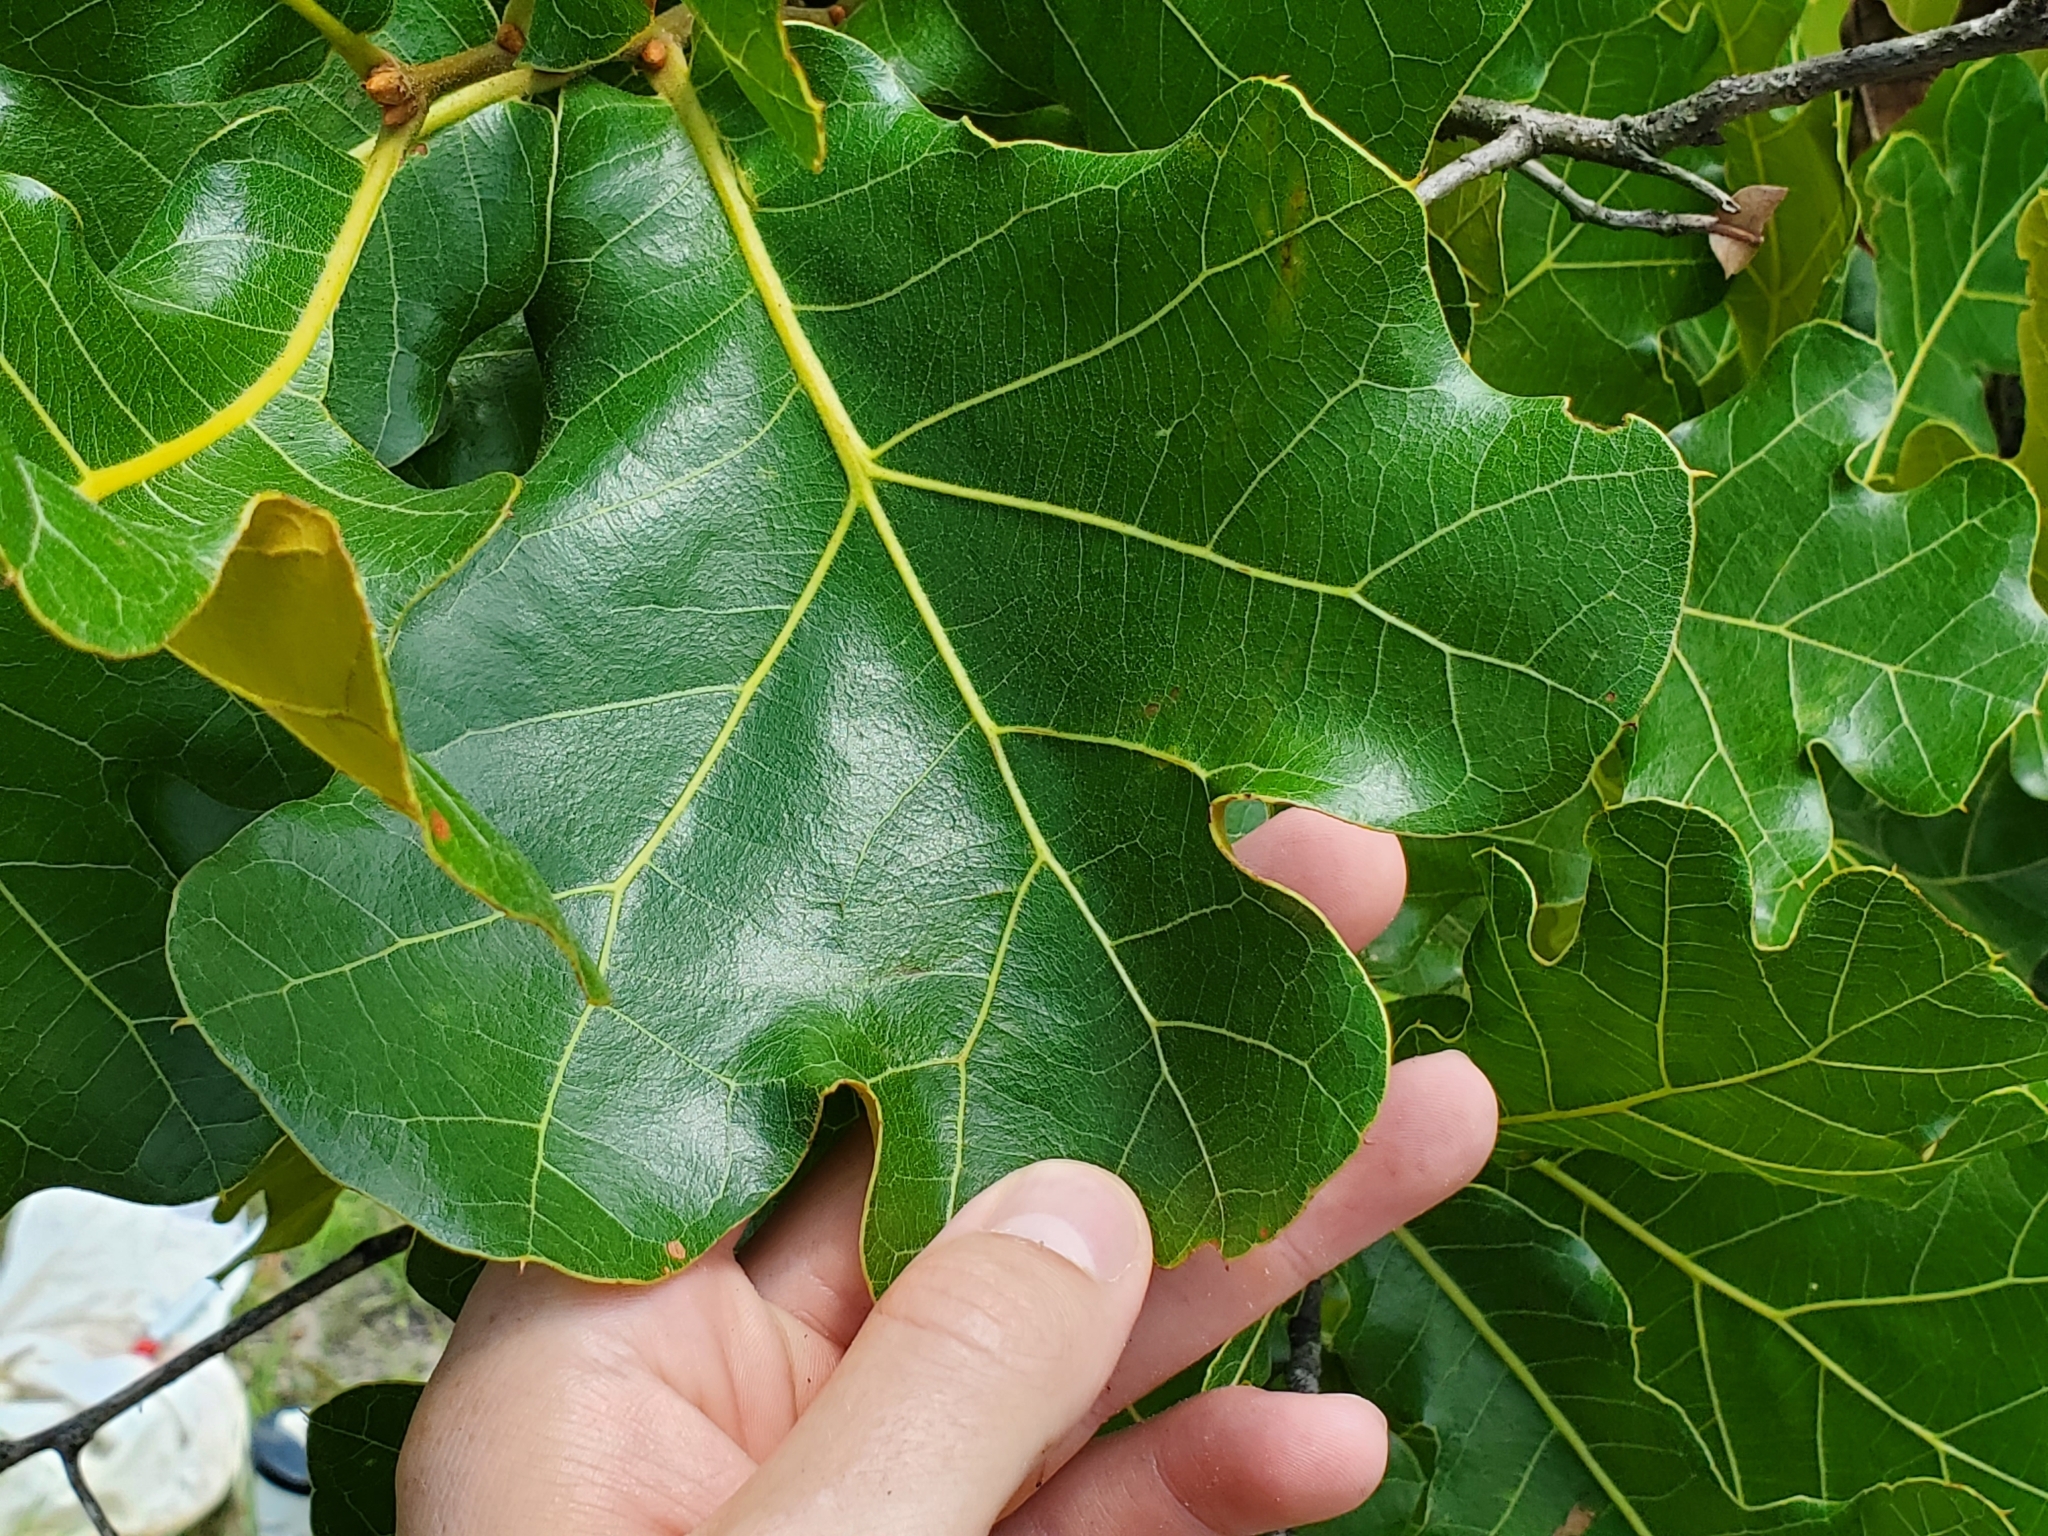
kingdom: Plantae
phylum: Tracheophyta
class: Magnoliopsida
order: Fagales
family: Fagaceae
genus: Quercus
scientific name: Quercus marilandica
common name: Blackjack oak
